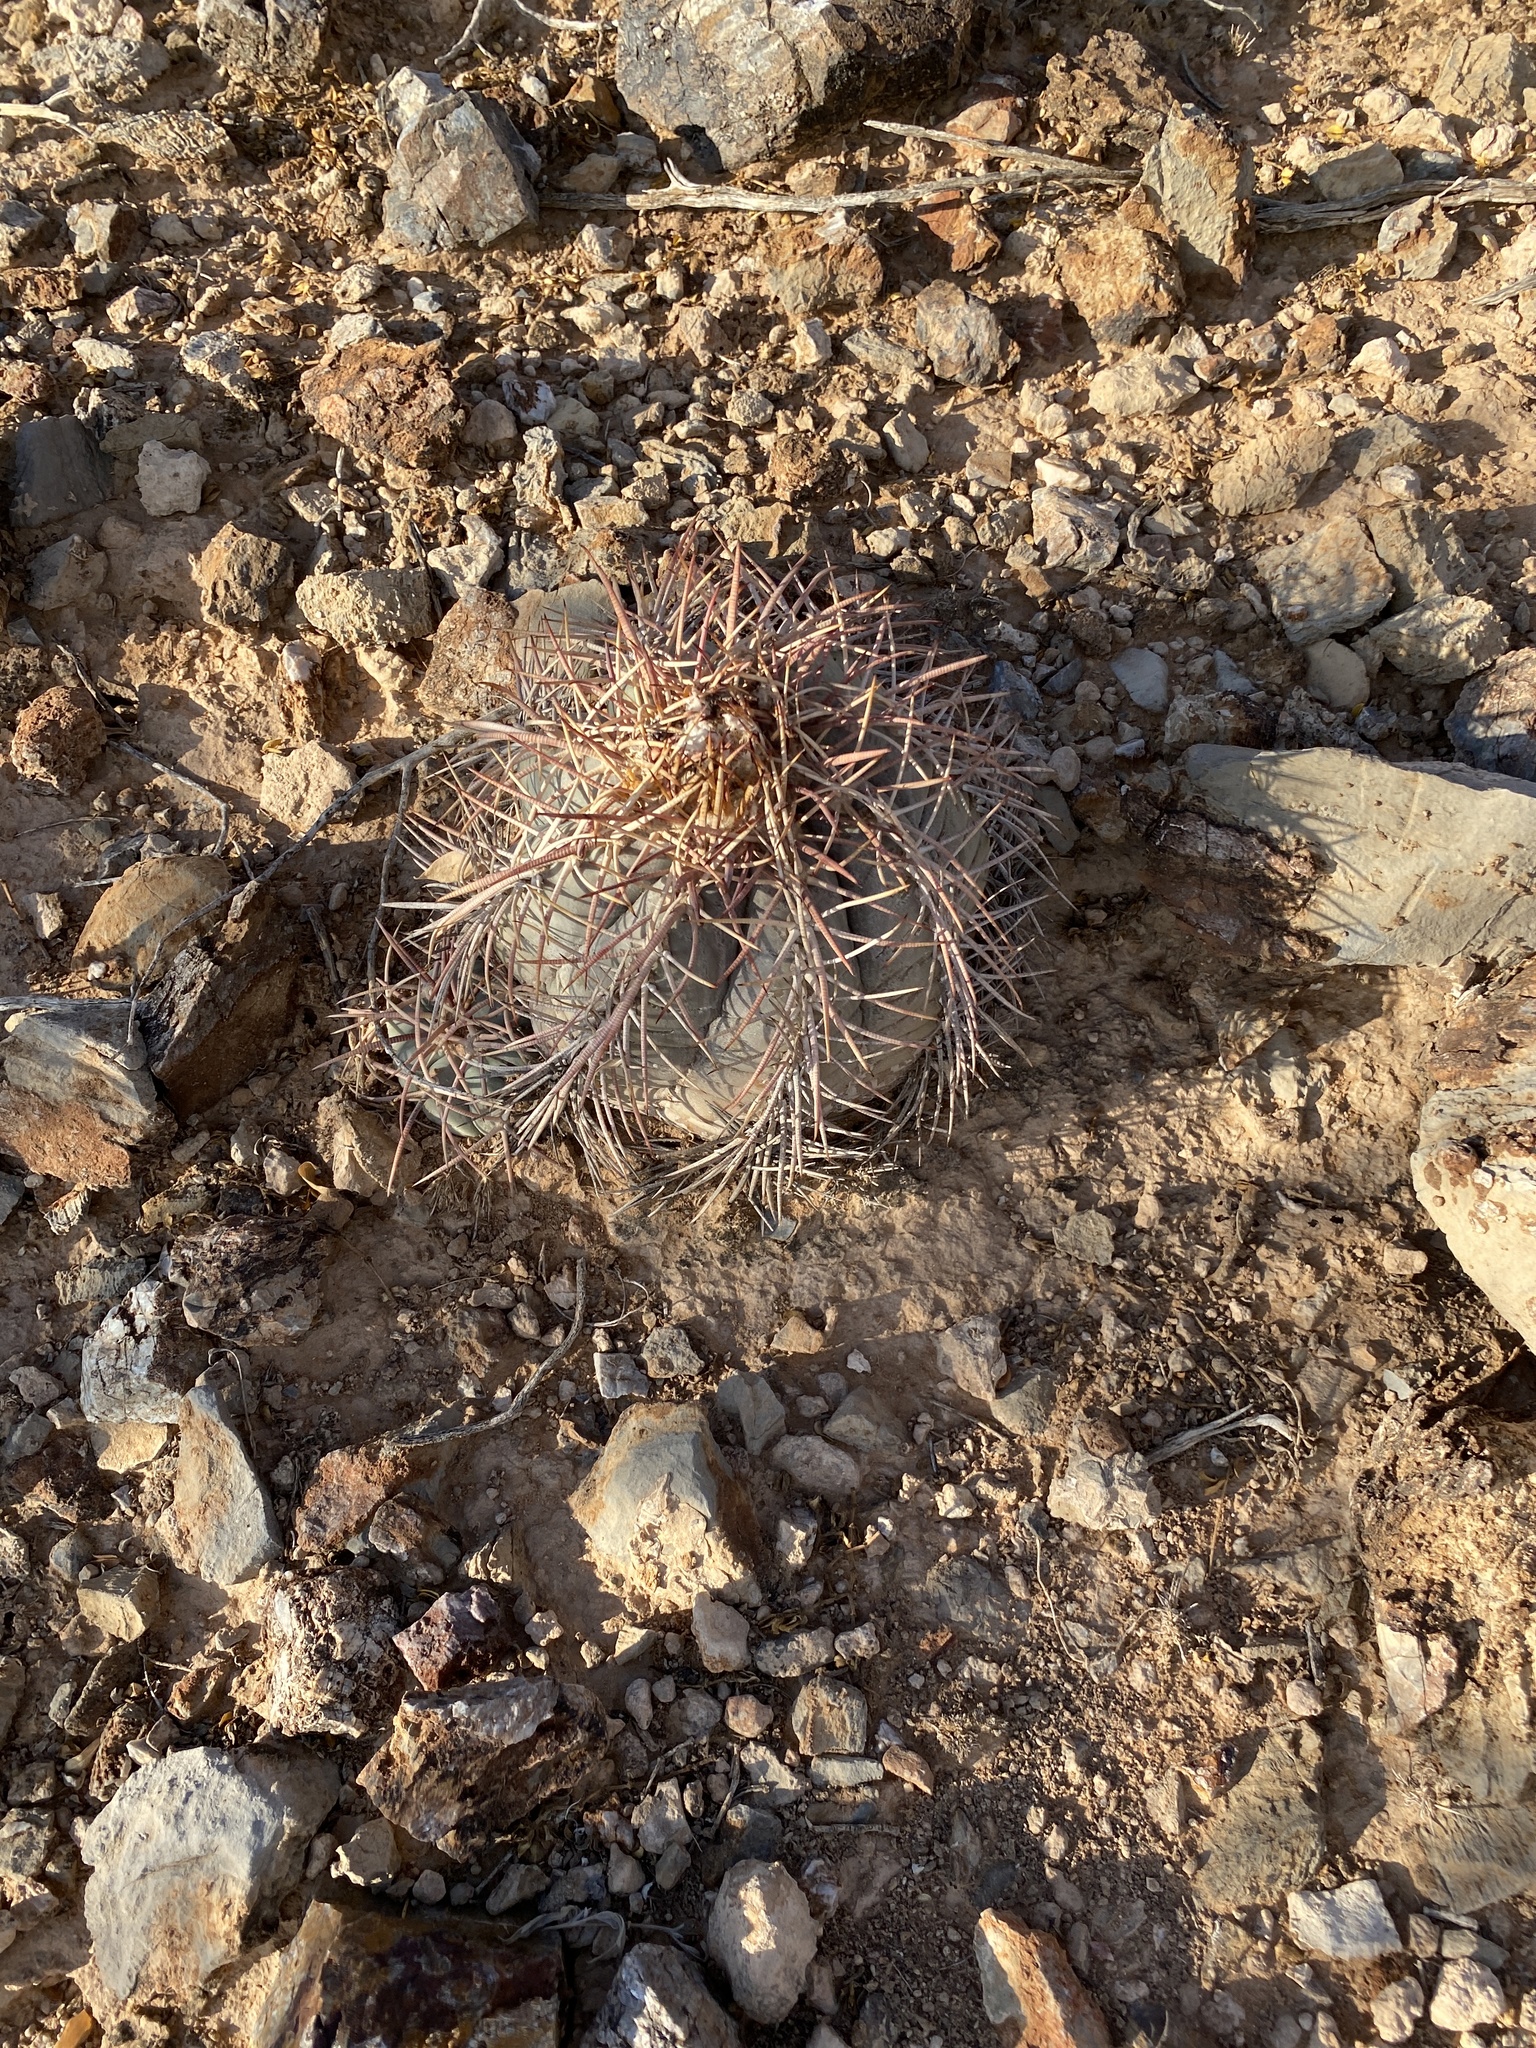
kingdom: Plantae
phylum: Tracheophyta
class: Magnoliopsida
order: Caryophyllales
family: Cactaceae
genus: Echinocactus
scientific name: Echinocactus horizonthalonius
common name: Devilshead
